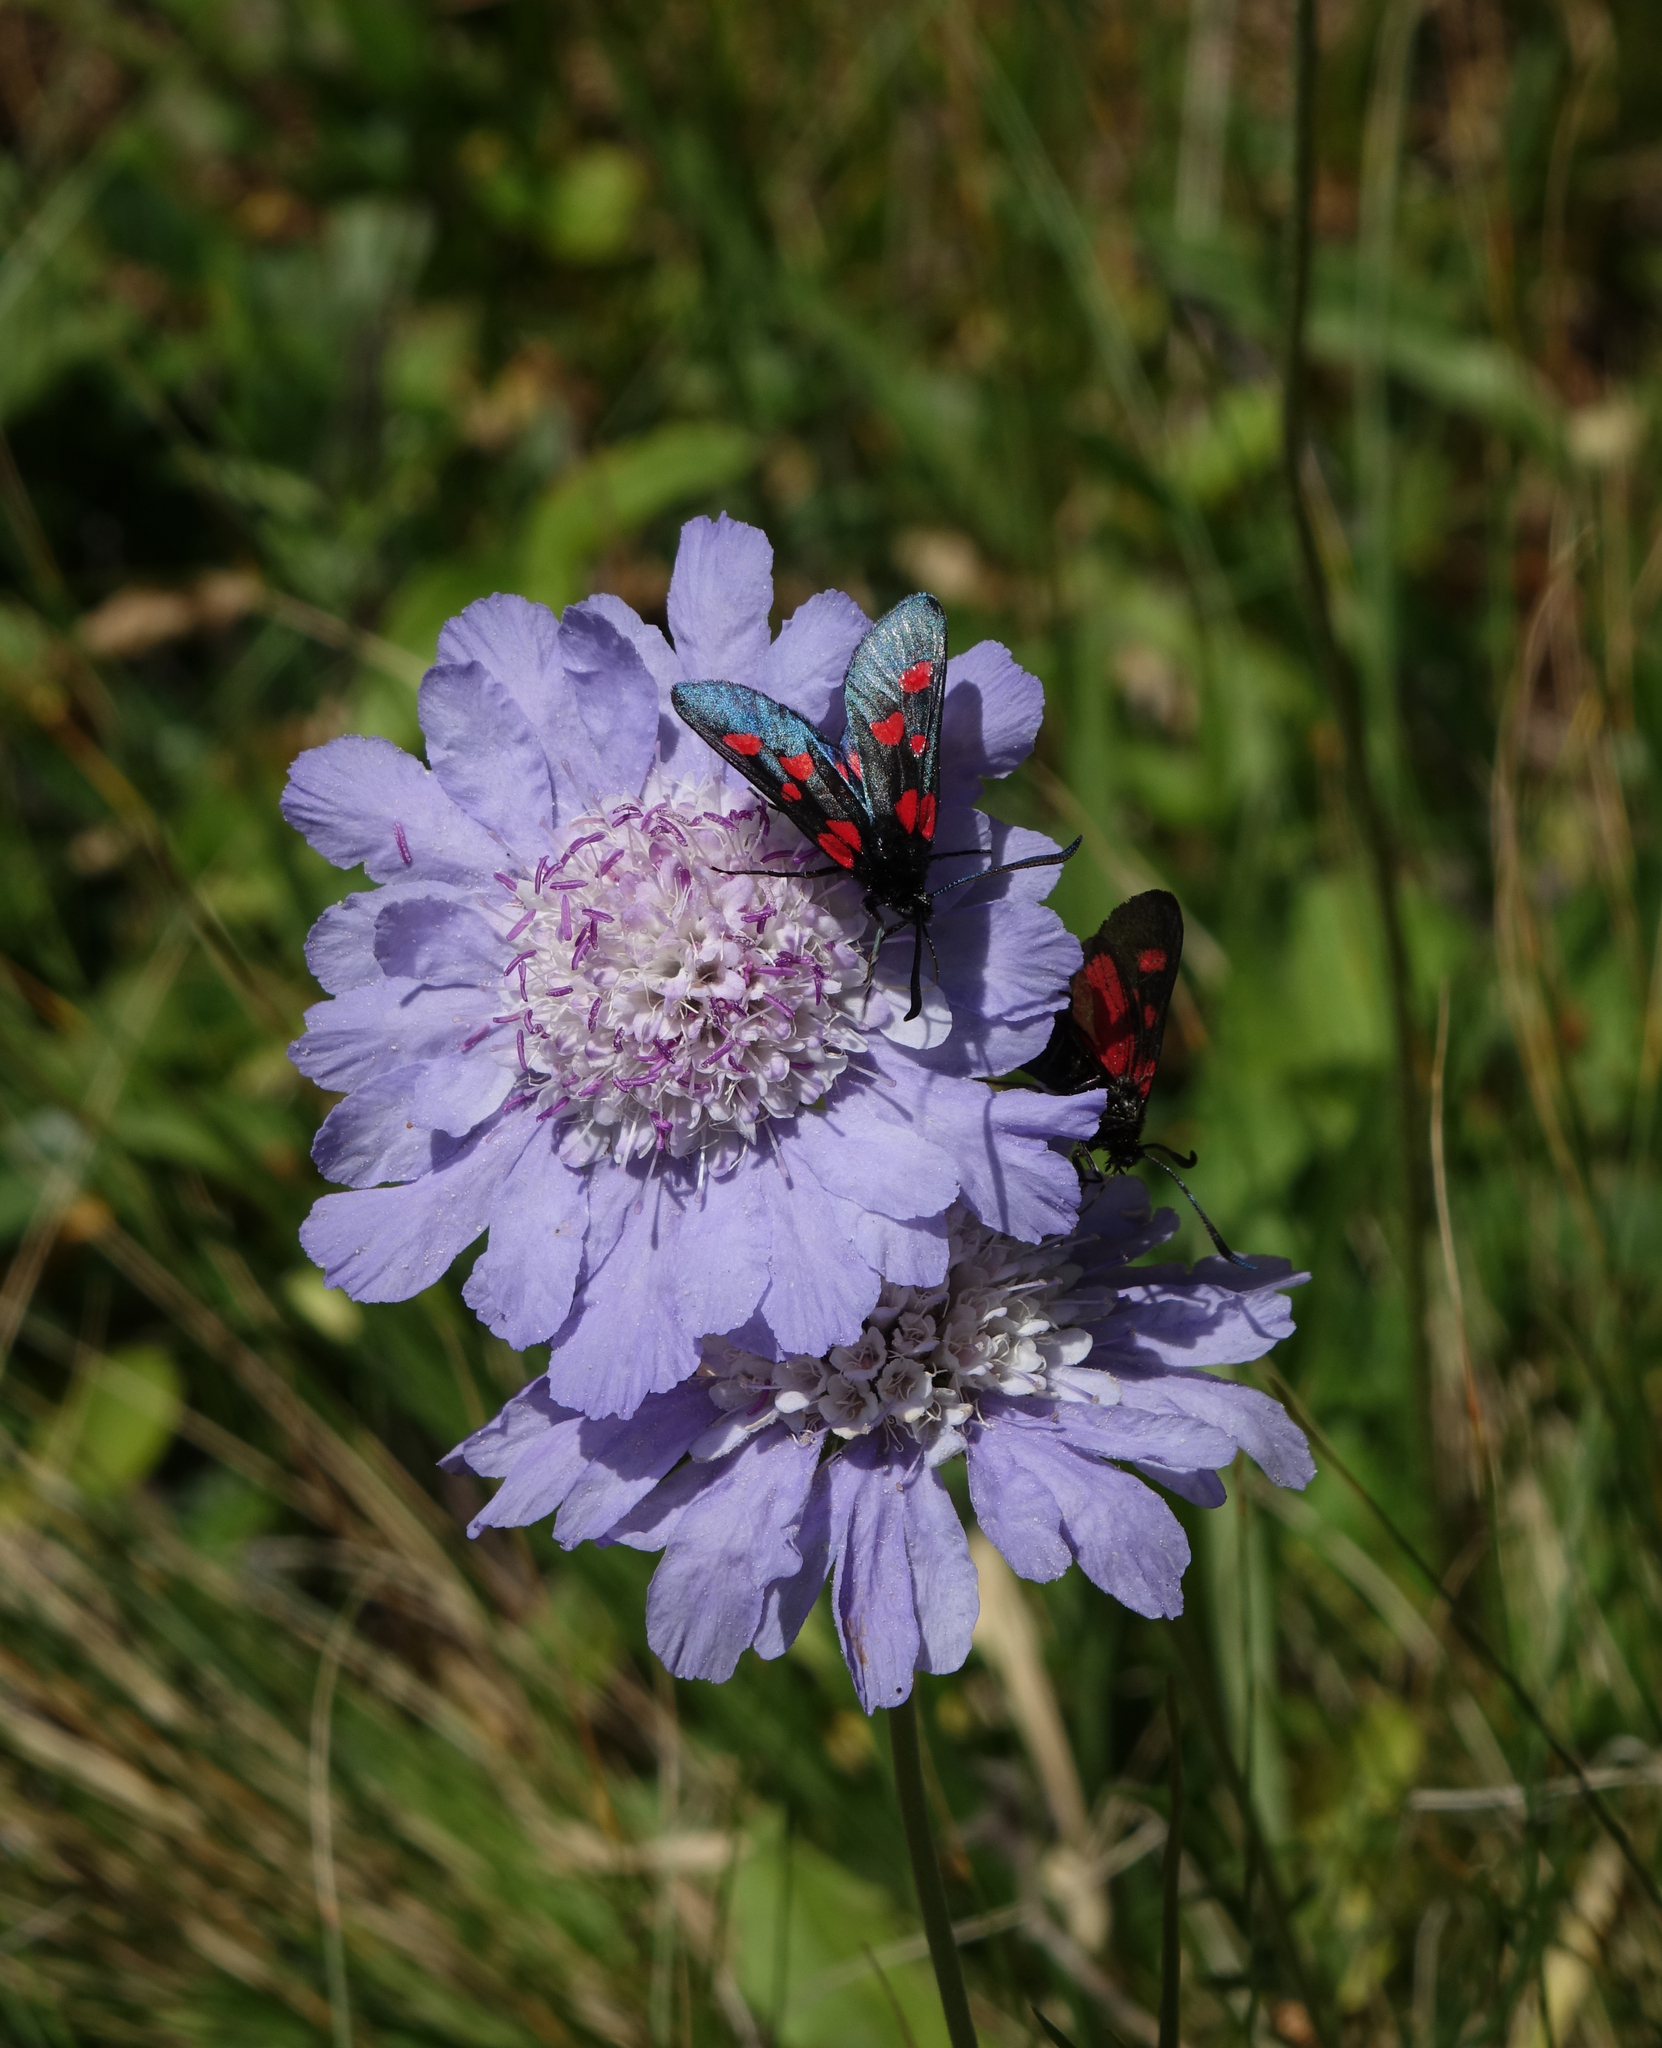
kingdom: Animalia
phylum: Arthropoda
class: Insecta
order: Lepidoptera
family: Zygaenidae
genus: Zygaena
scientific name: Zygaena filipendulae
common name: Six-spot burnet
